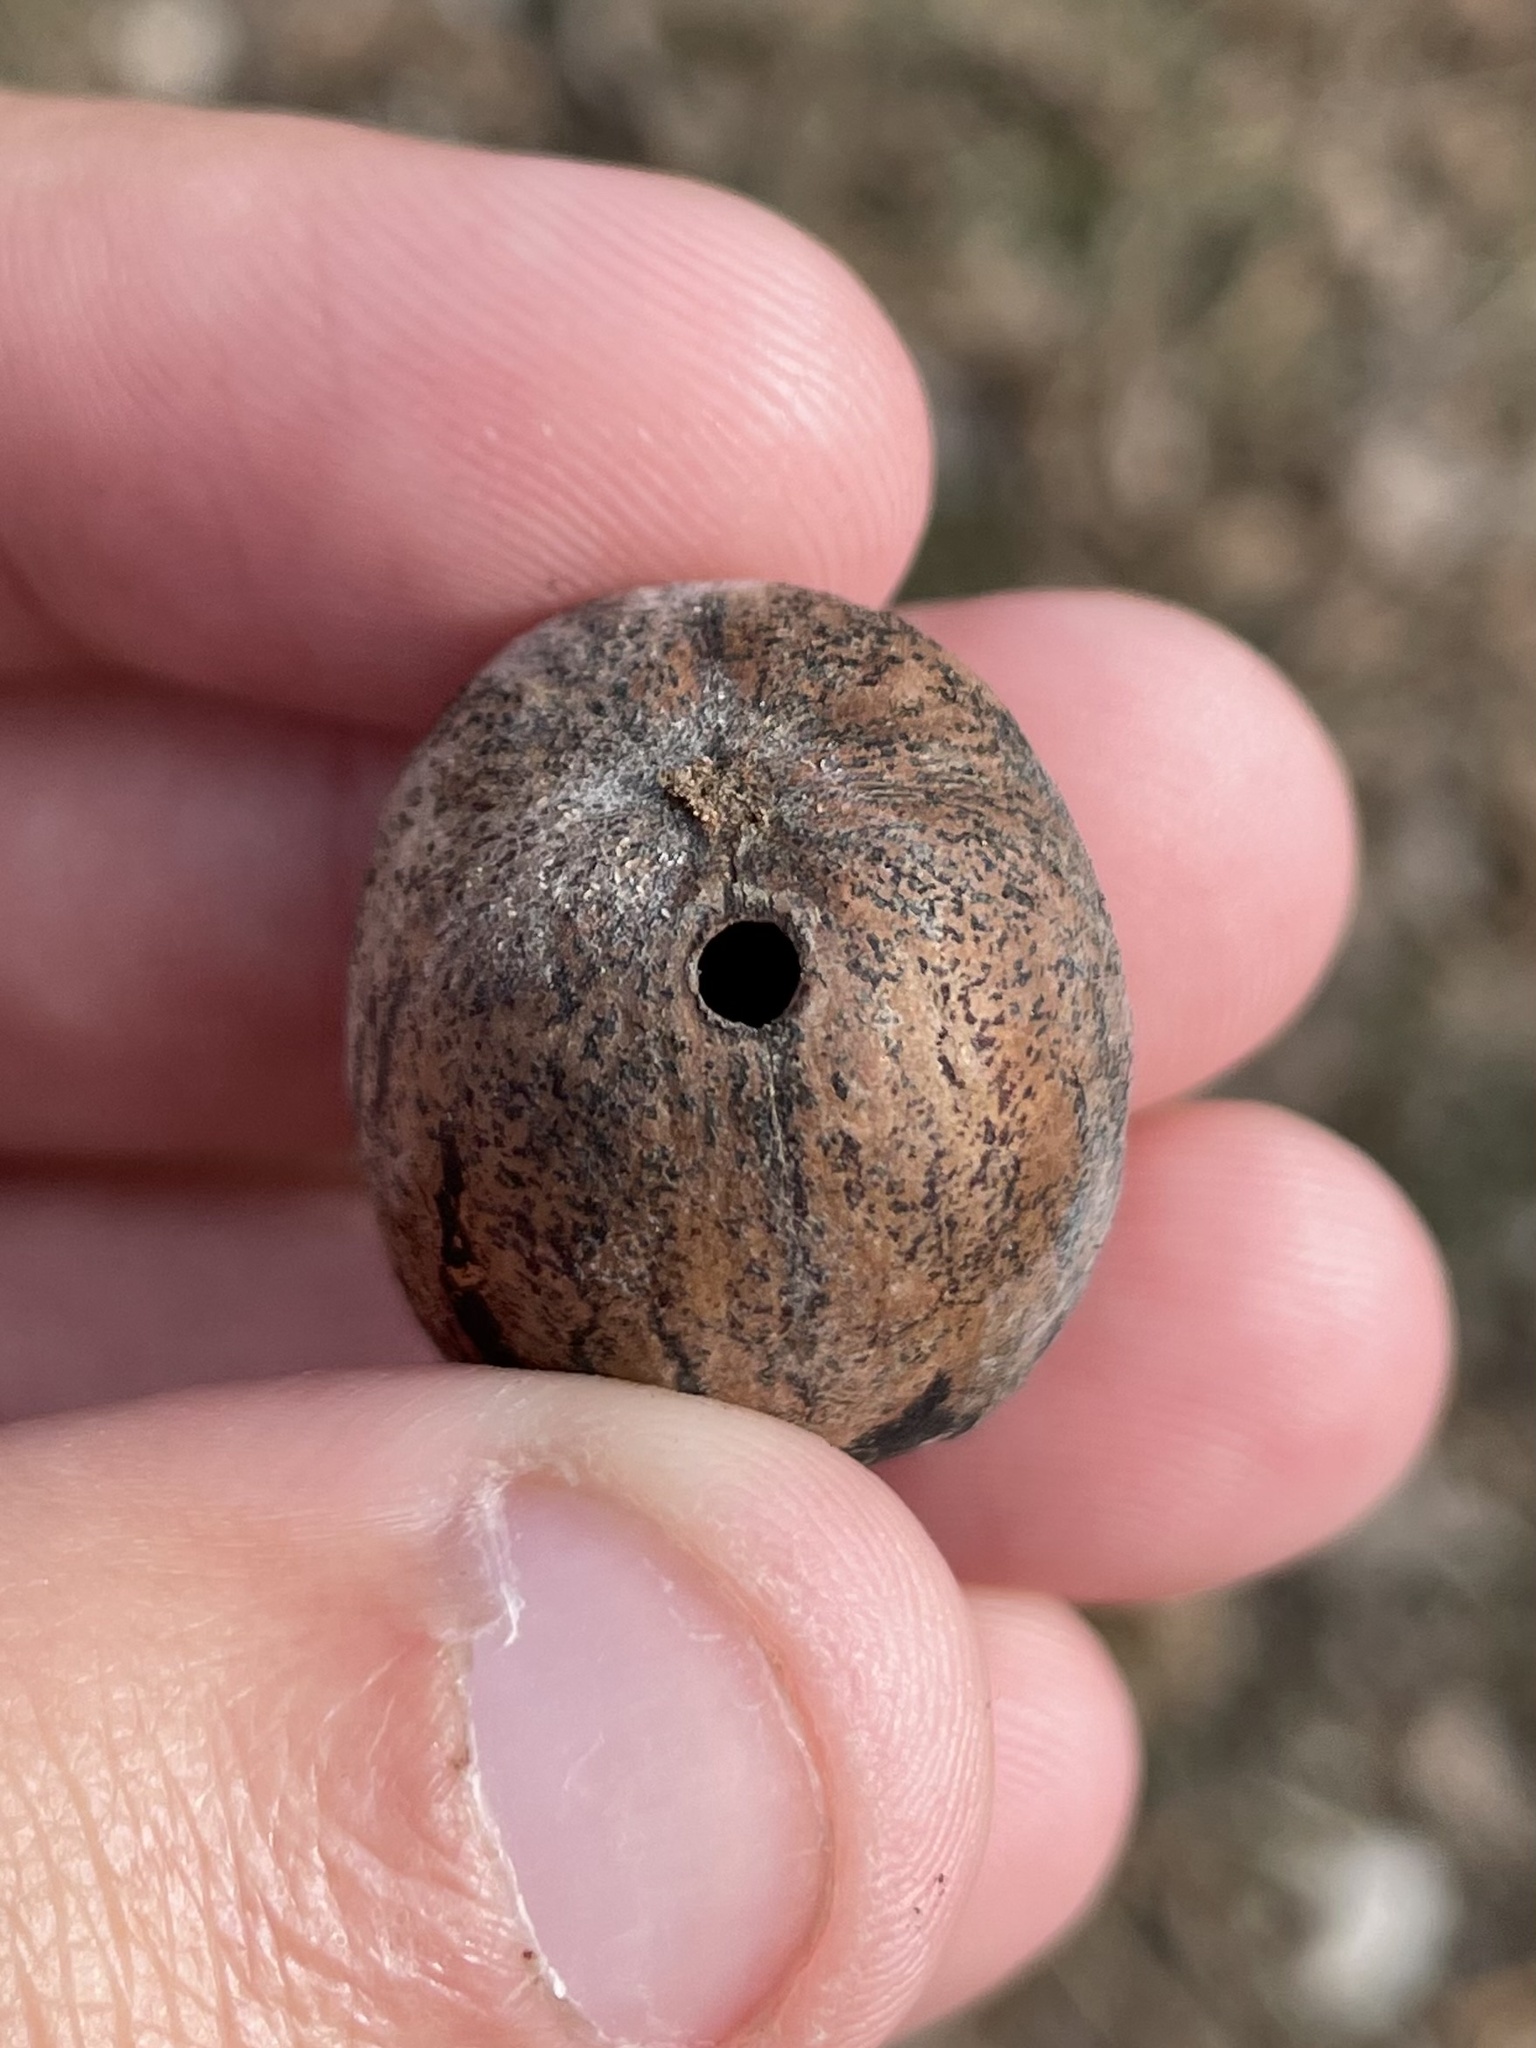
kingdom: Animalia
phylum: Arthropoda
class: Insecta
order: Coleoptera
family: Curculionidae
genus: Curculio
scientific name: Curculio
